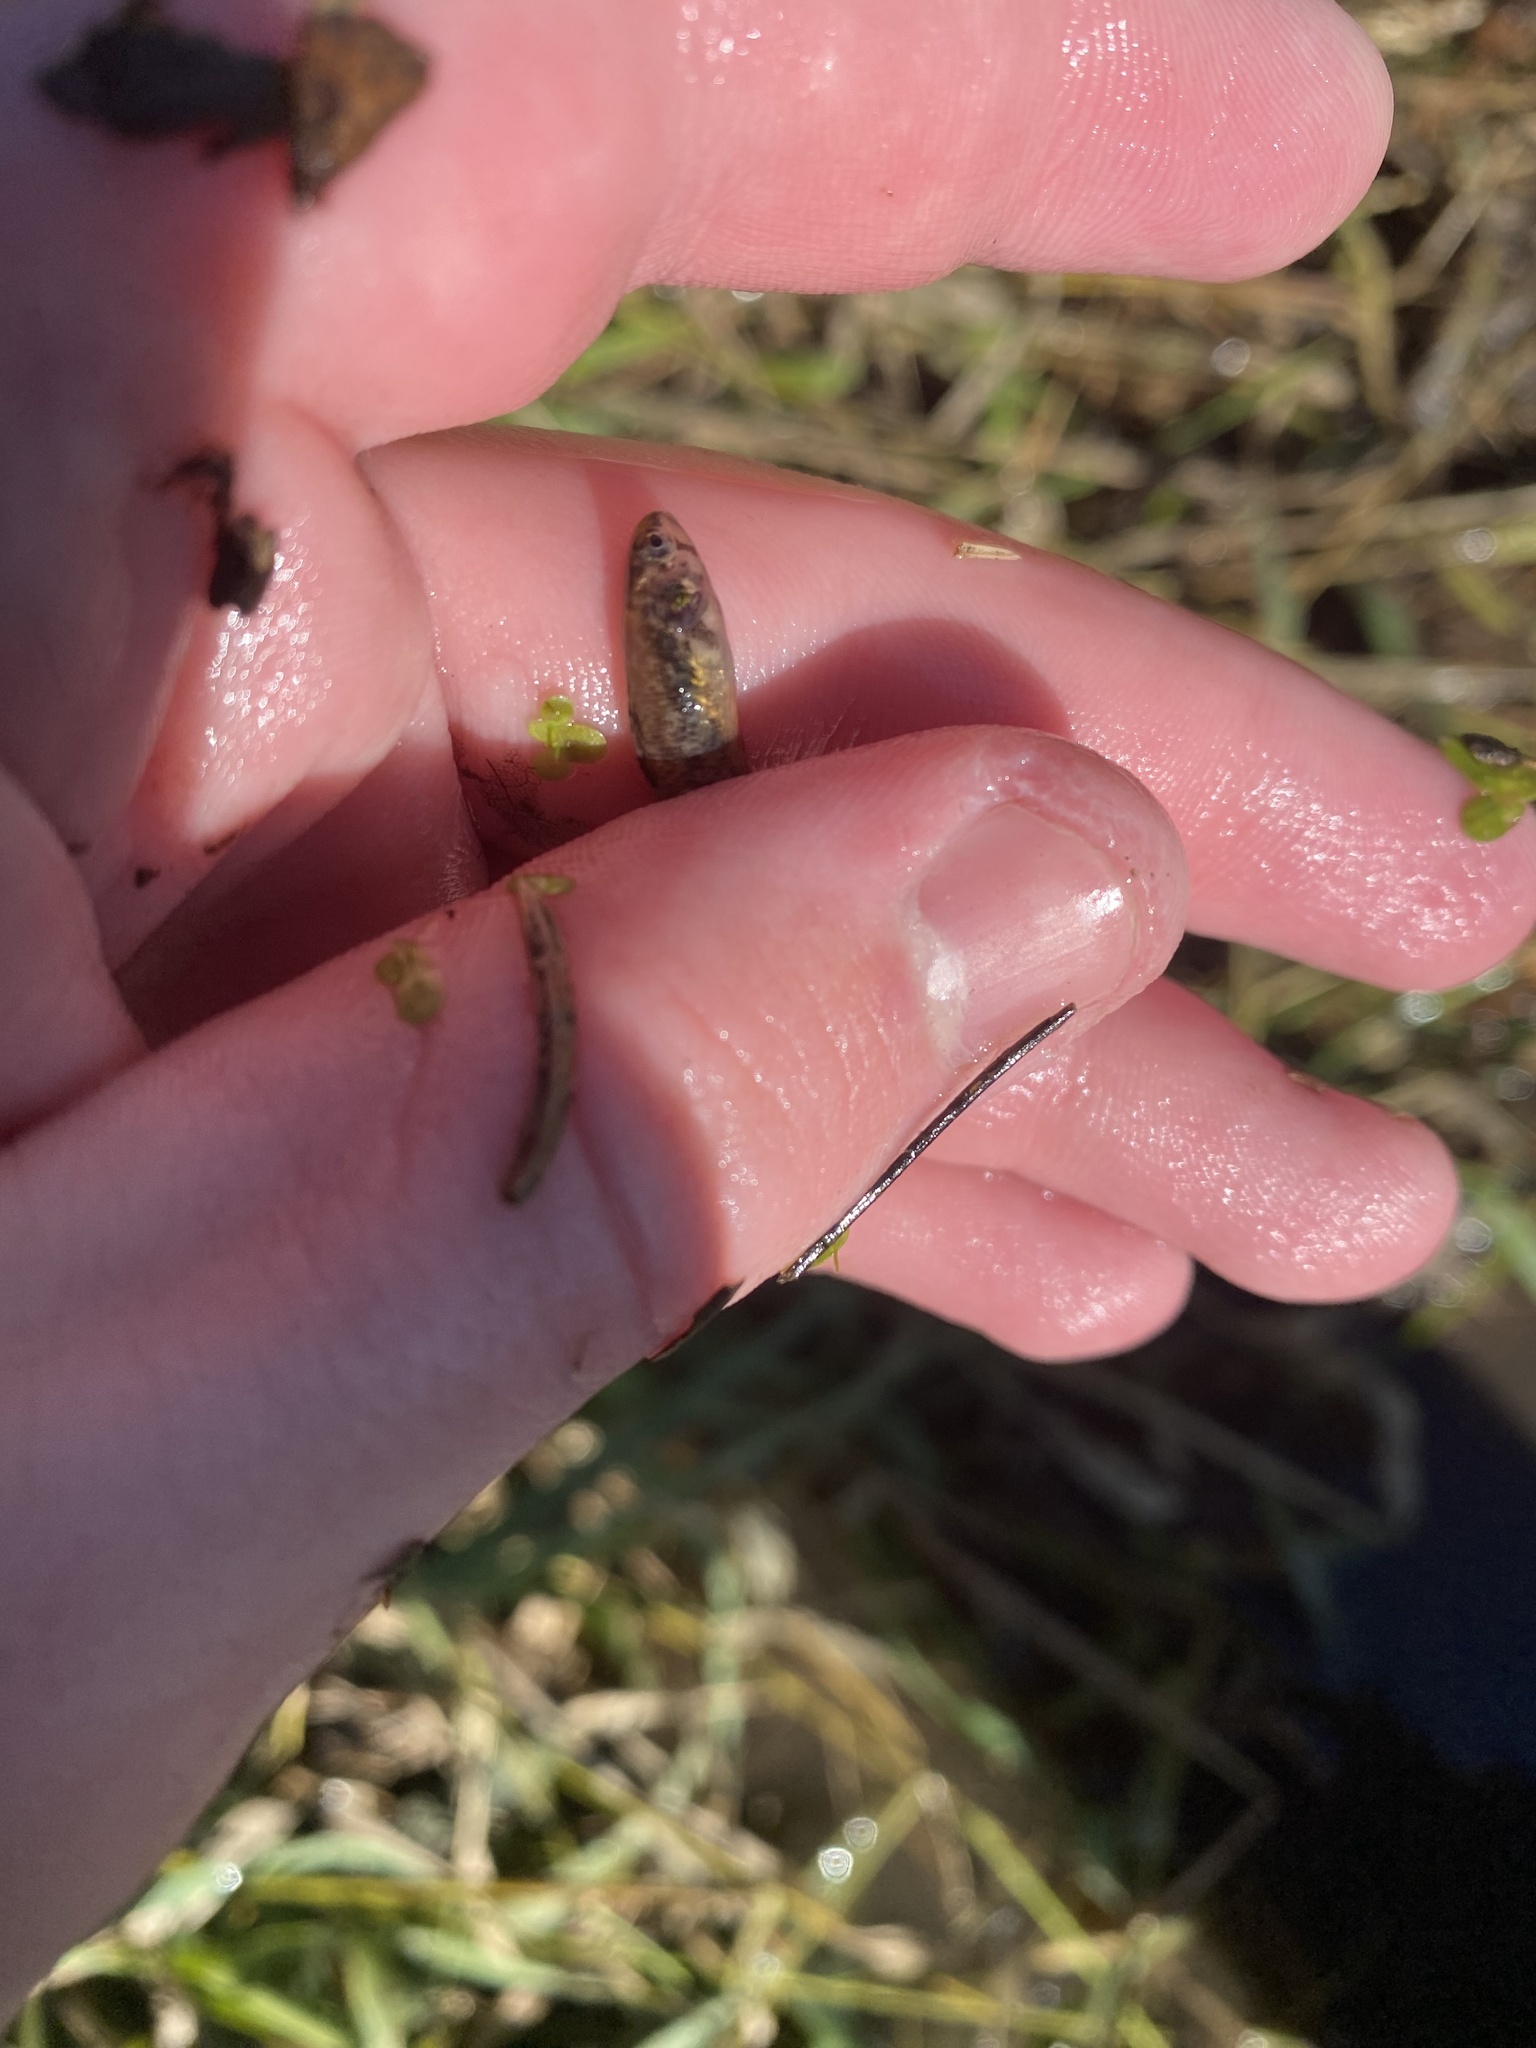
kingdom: Animalia
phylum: Chordata
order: Perciformes
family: Percidae
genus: Etheostoma
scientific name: Etheostoma microperca
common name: Least darter
